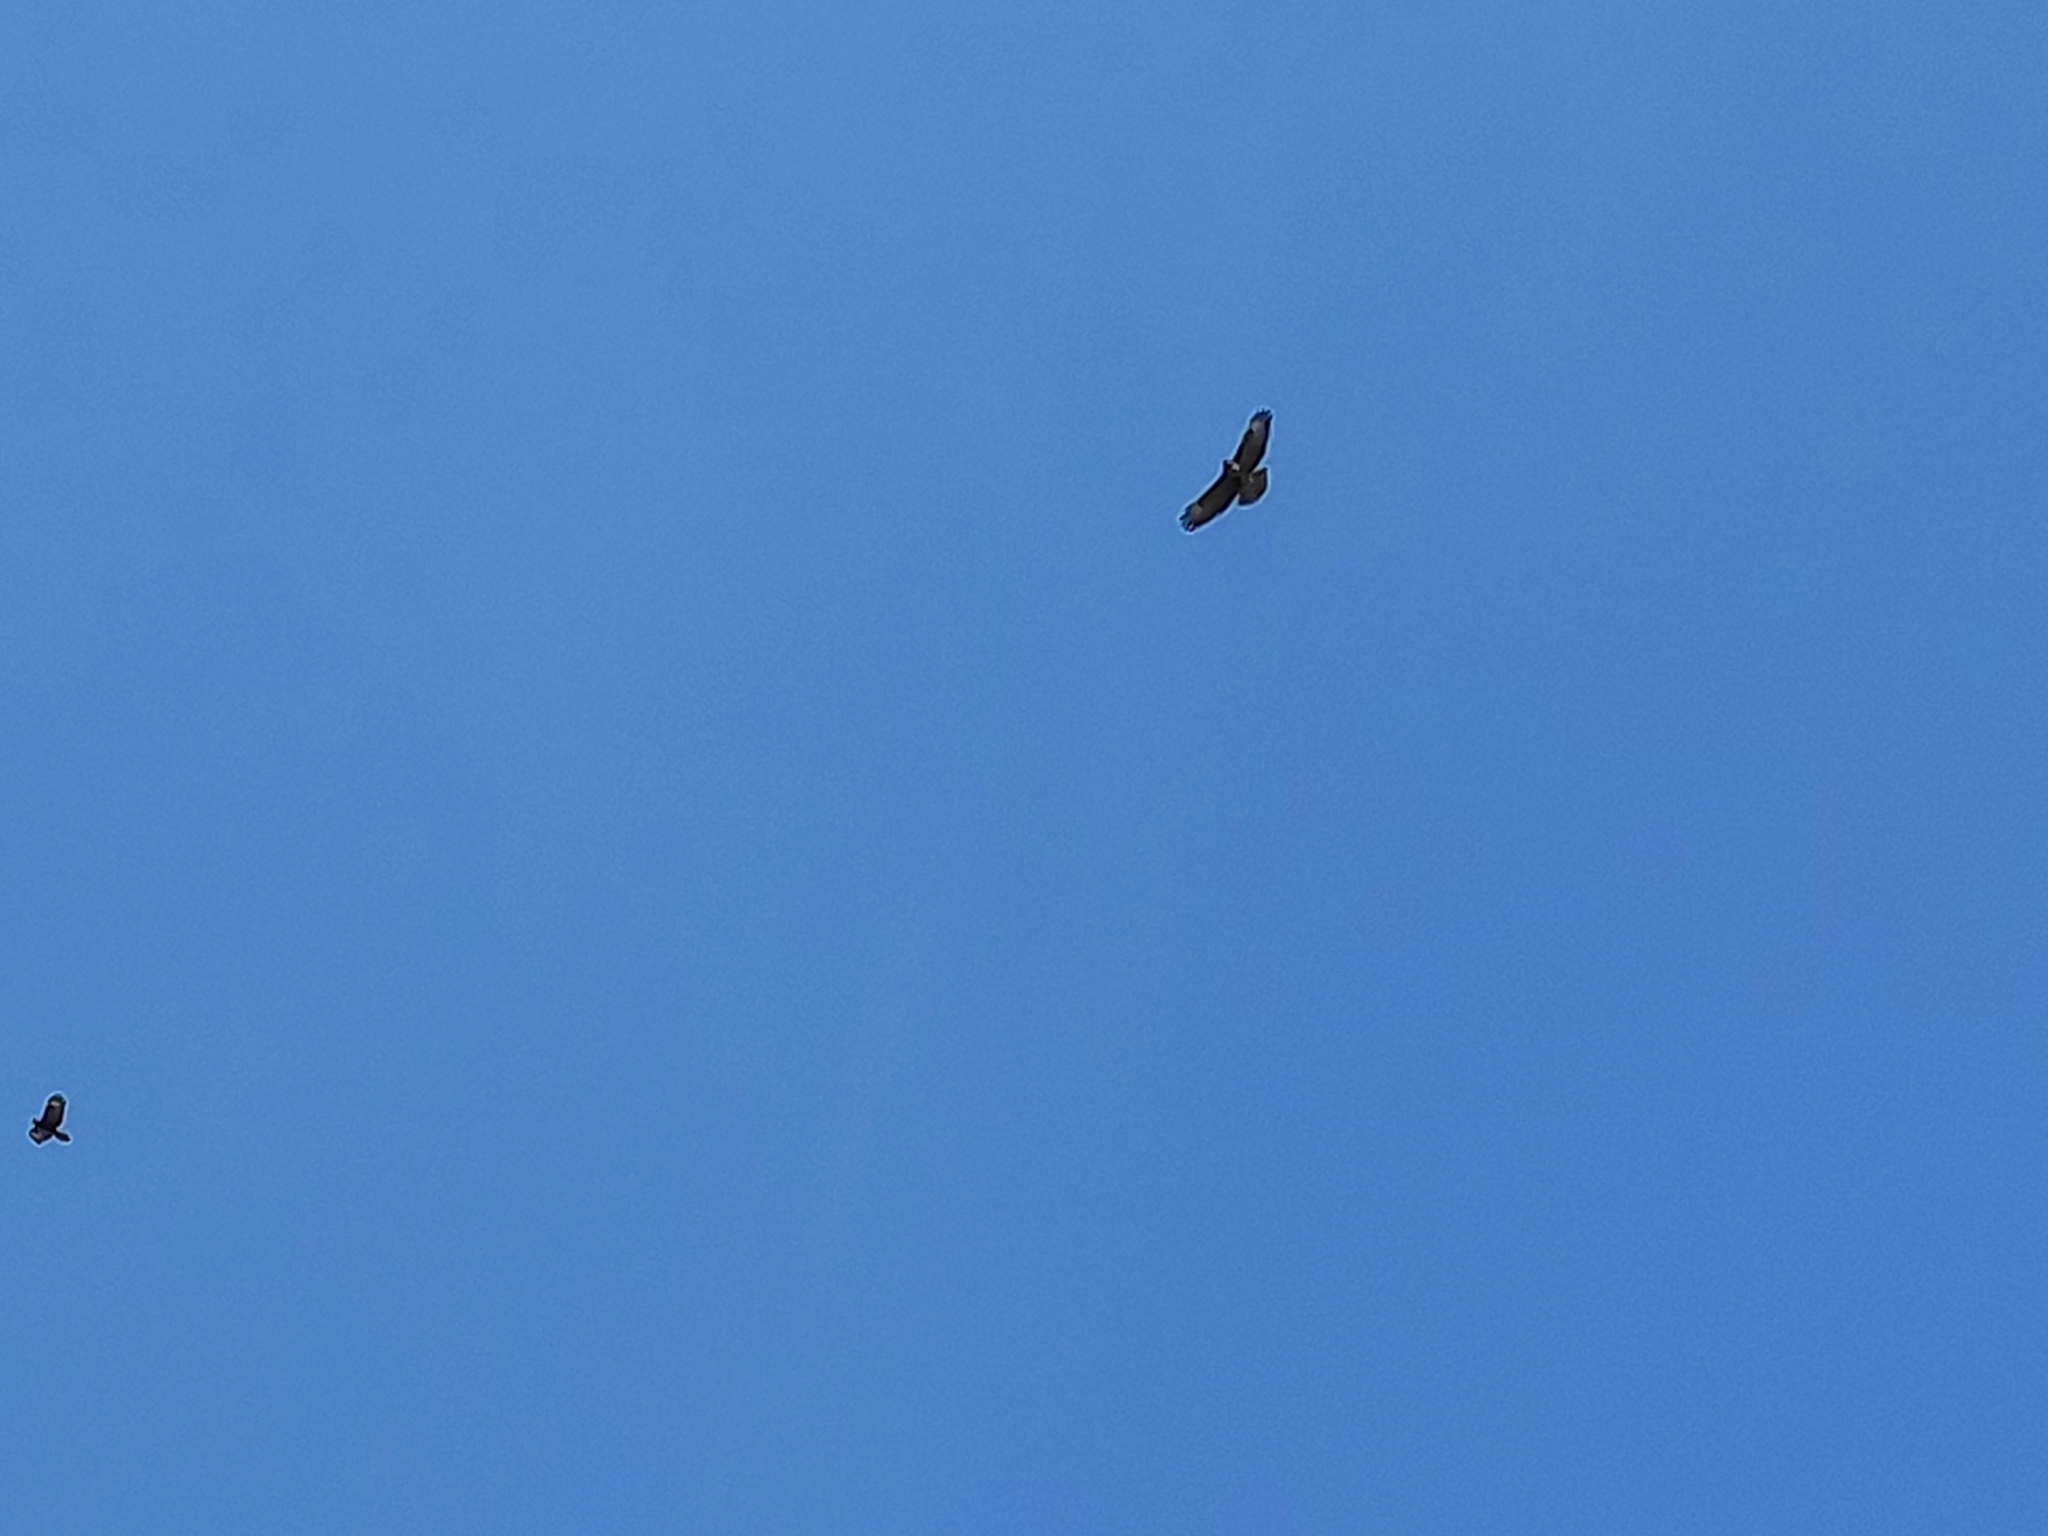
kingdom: Animalia
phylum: Chordata
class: Aves
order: Accipitriformes
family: Accipitridae
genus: Buteo
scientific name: Buteo buteo
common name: Common buzzard
